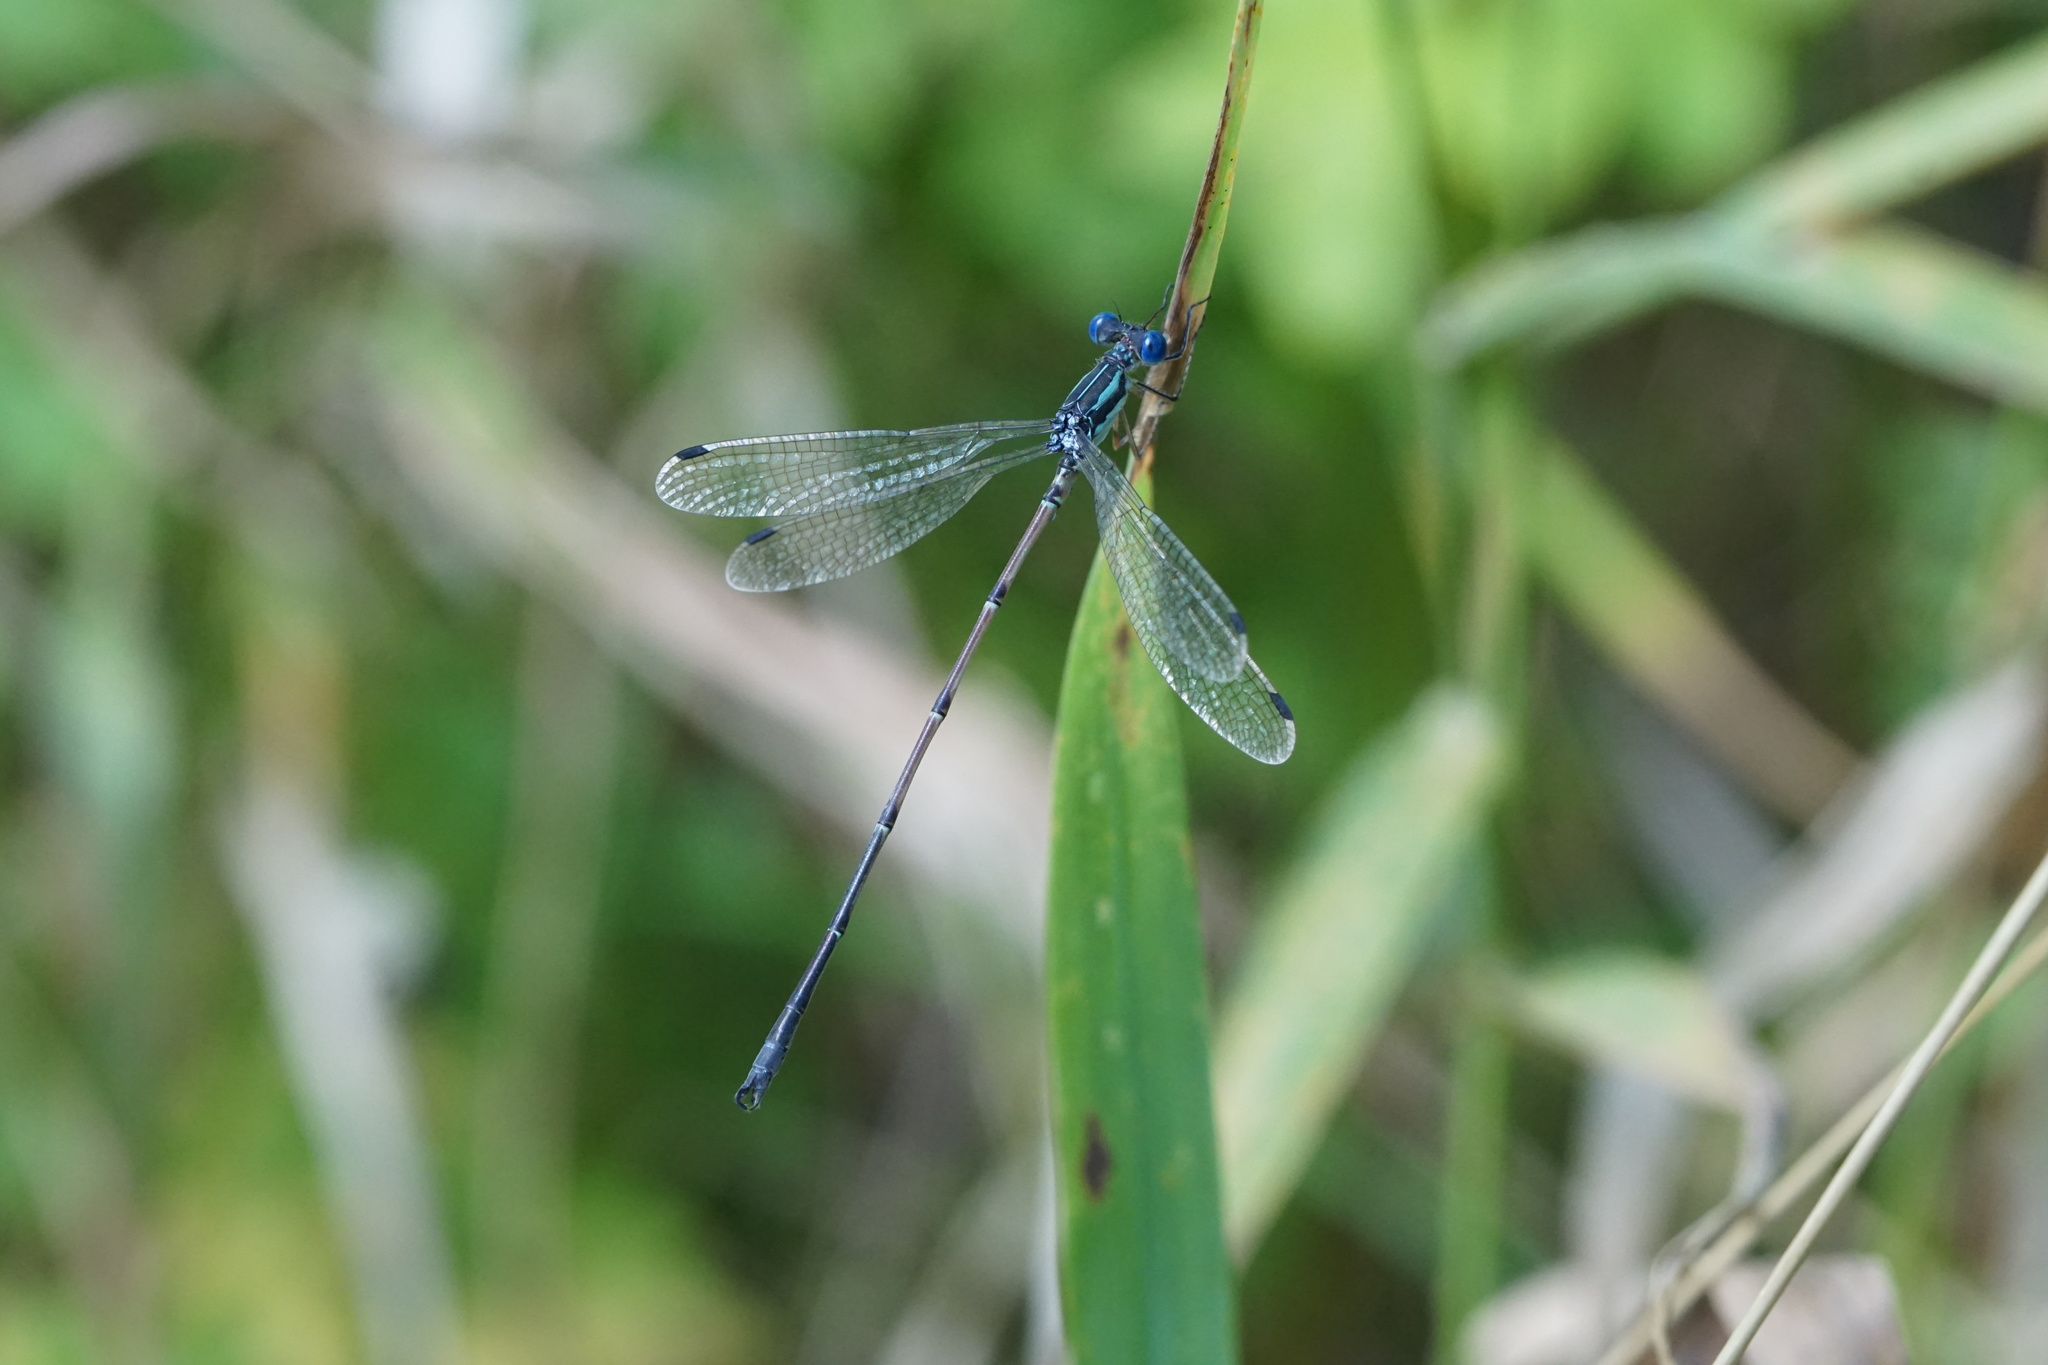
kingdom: Animalia
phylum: Arthropoda
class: Insecta
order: Odonata
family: Lestidae
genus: Lestes
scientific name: Lestes rectangularis
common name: Slender spreadwing
